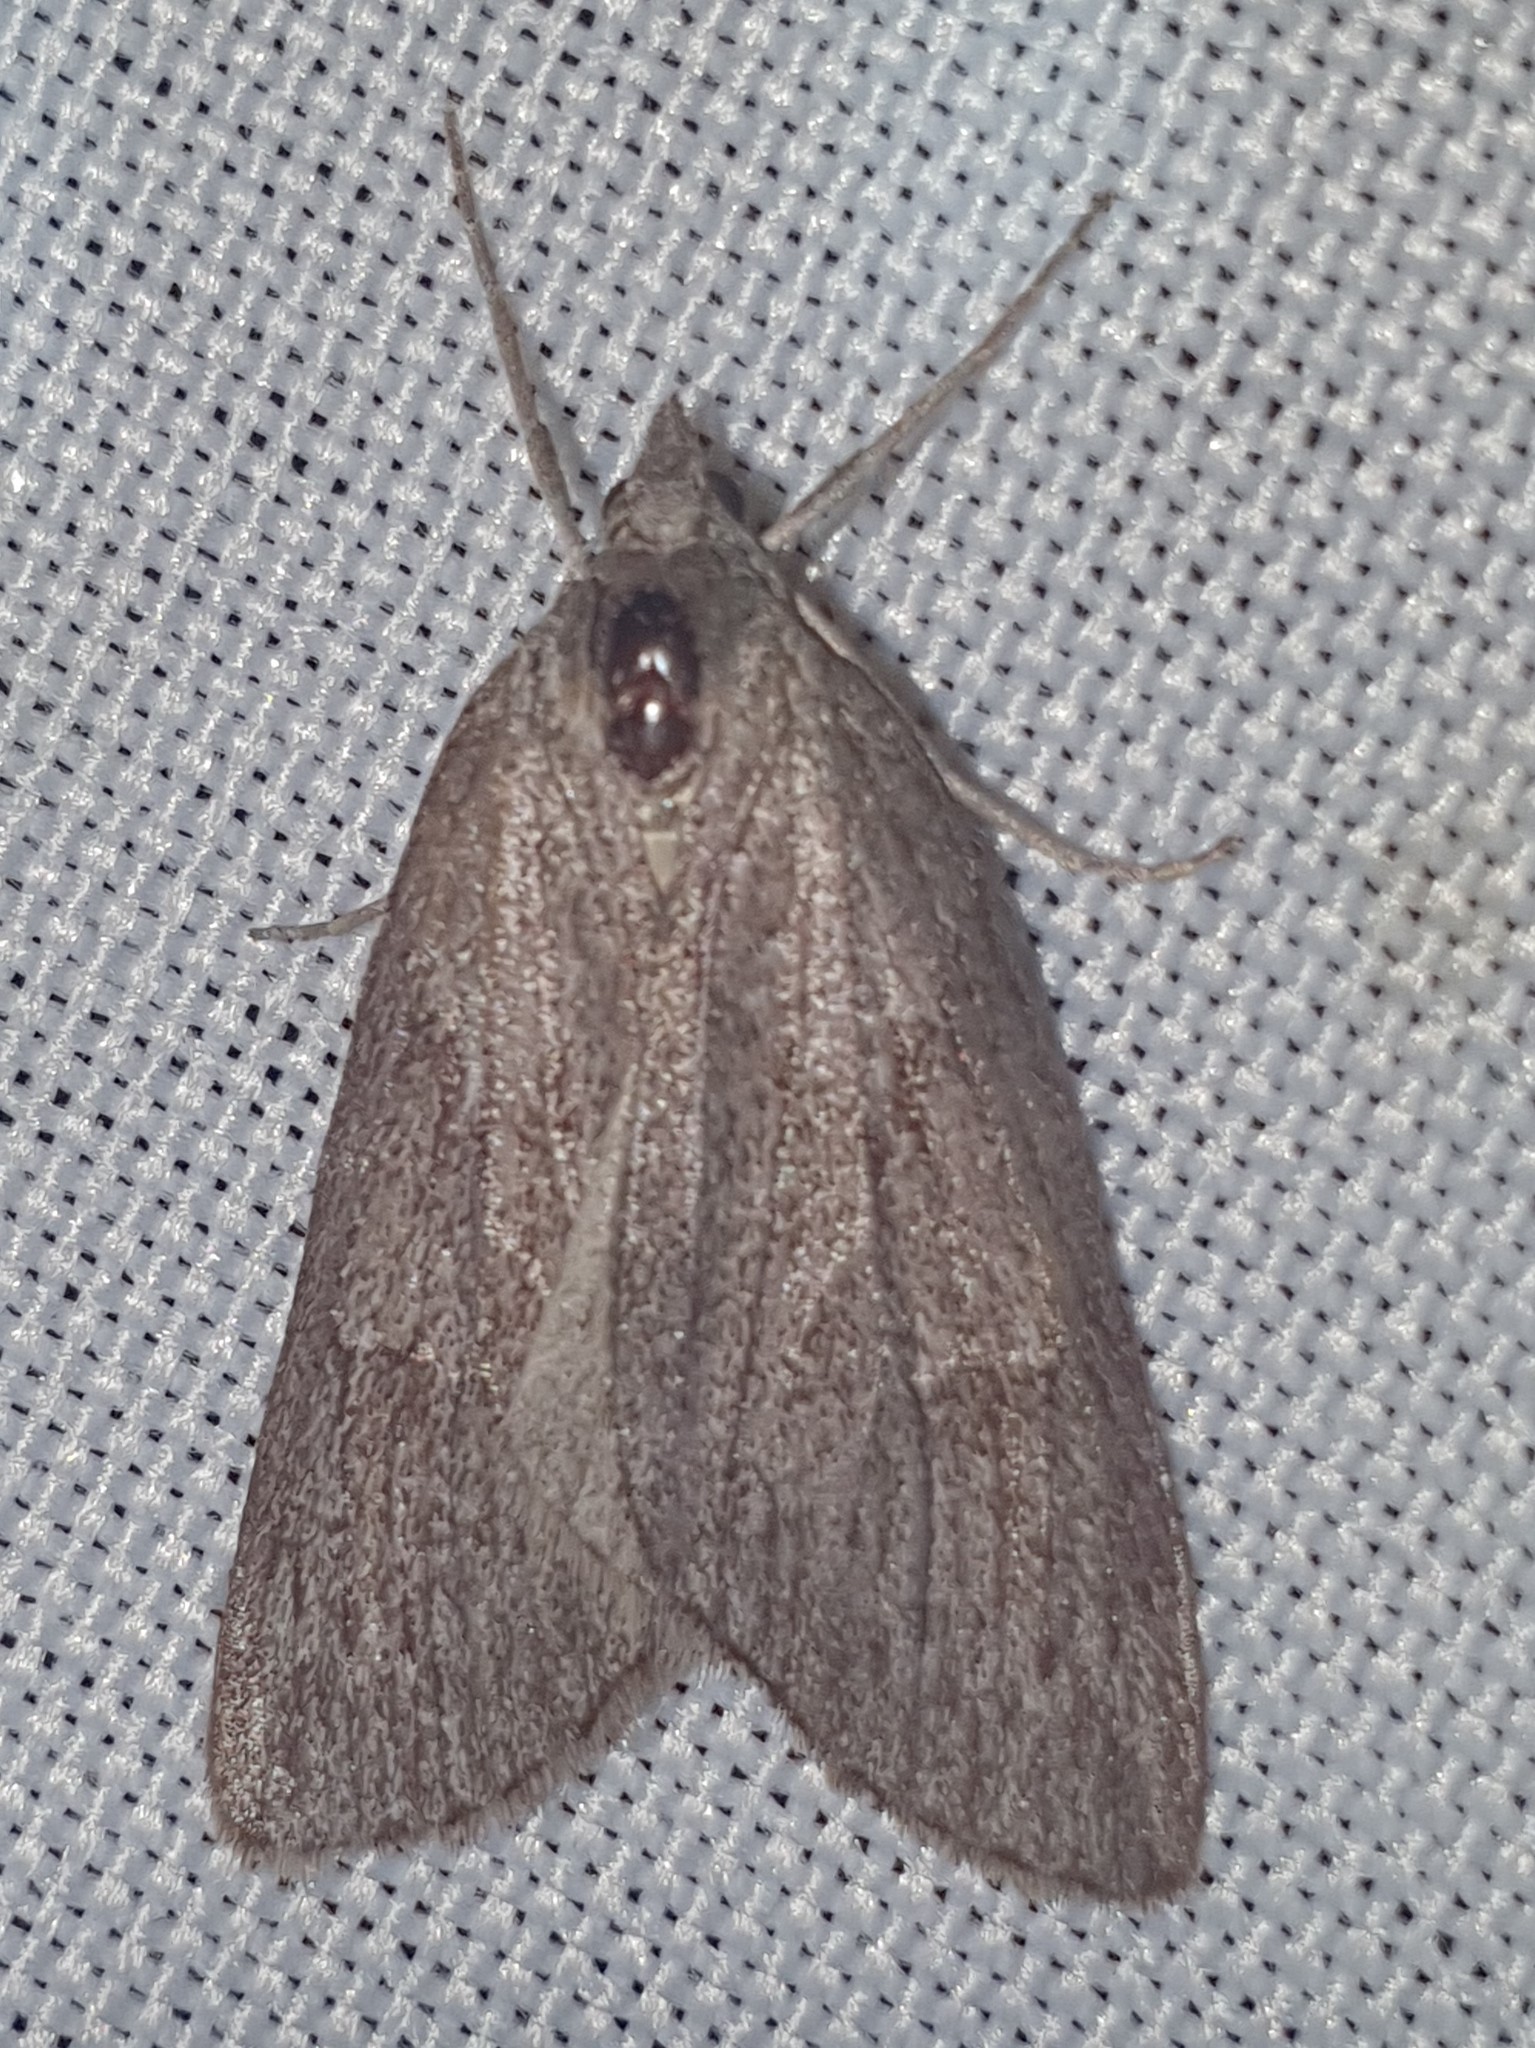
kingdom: Animalia
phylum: Arthropoda
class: Insecta
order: Lepidoptera
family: Geometridae
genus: Pachycnemia
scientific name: Pachycnemia hippocastanaria
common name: Horse chestnut
